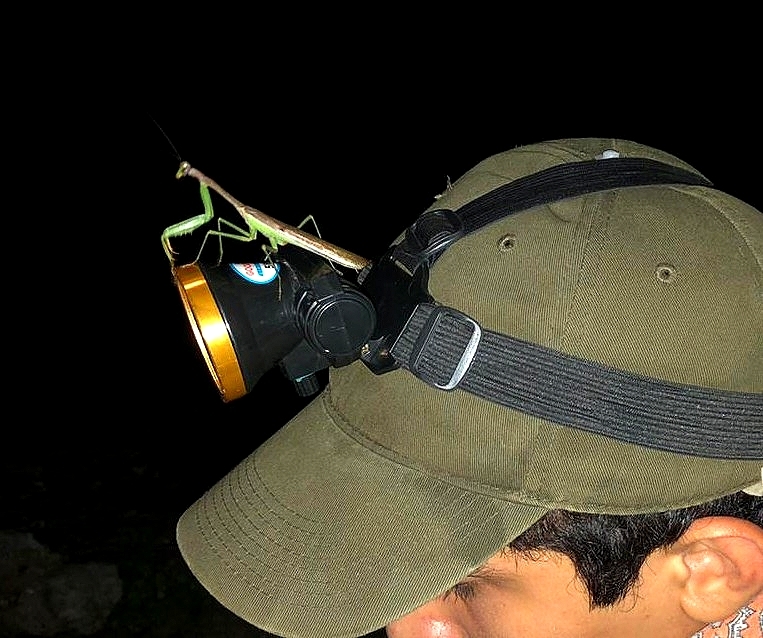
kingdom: Animalia
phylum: Arthropoda
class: Insecta
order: Mantodea
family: Mantidae
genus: Stagmomantis
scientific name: Stagmomantis carolina
